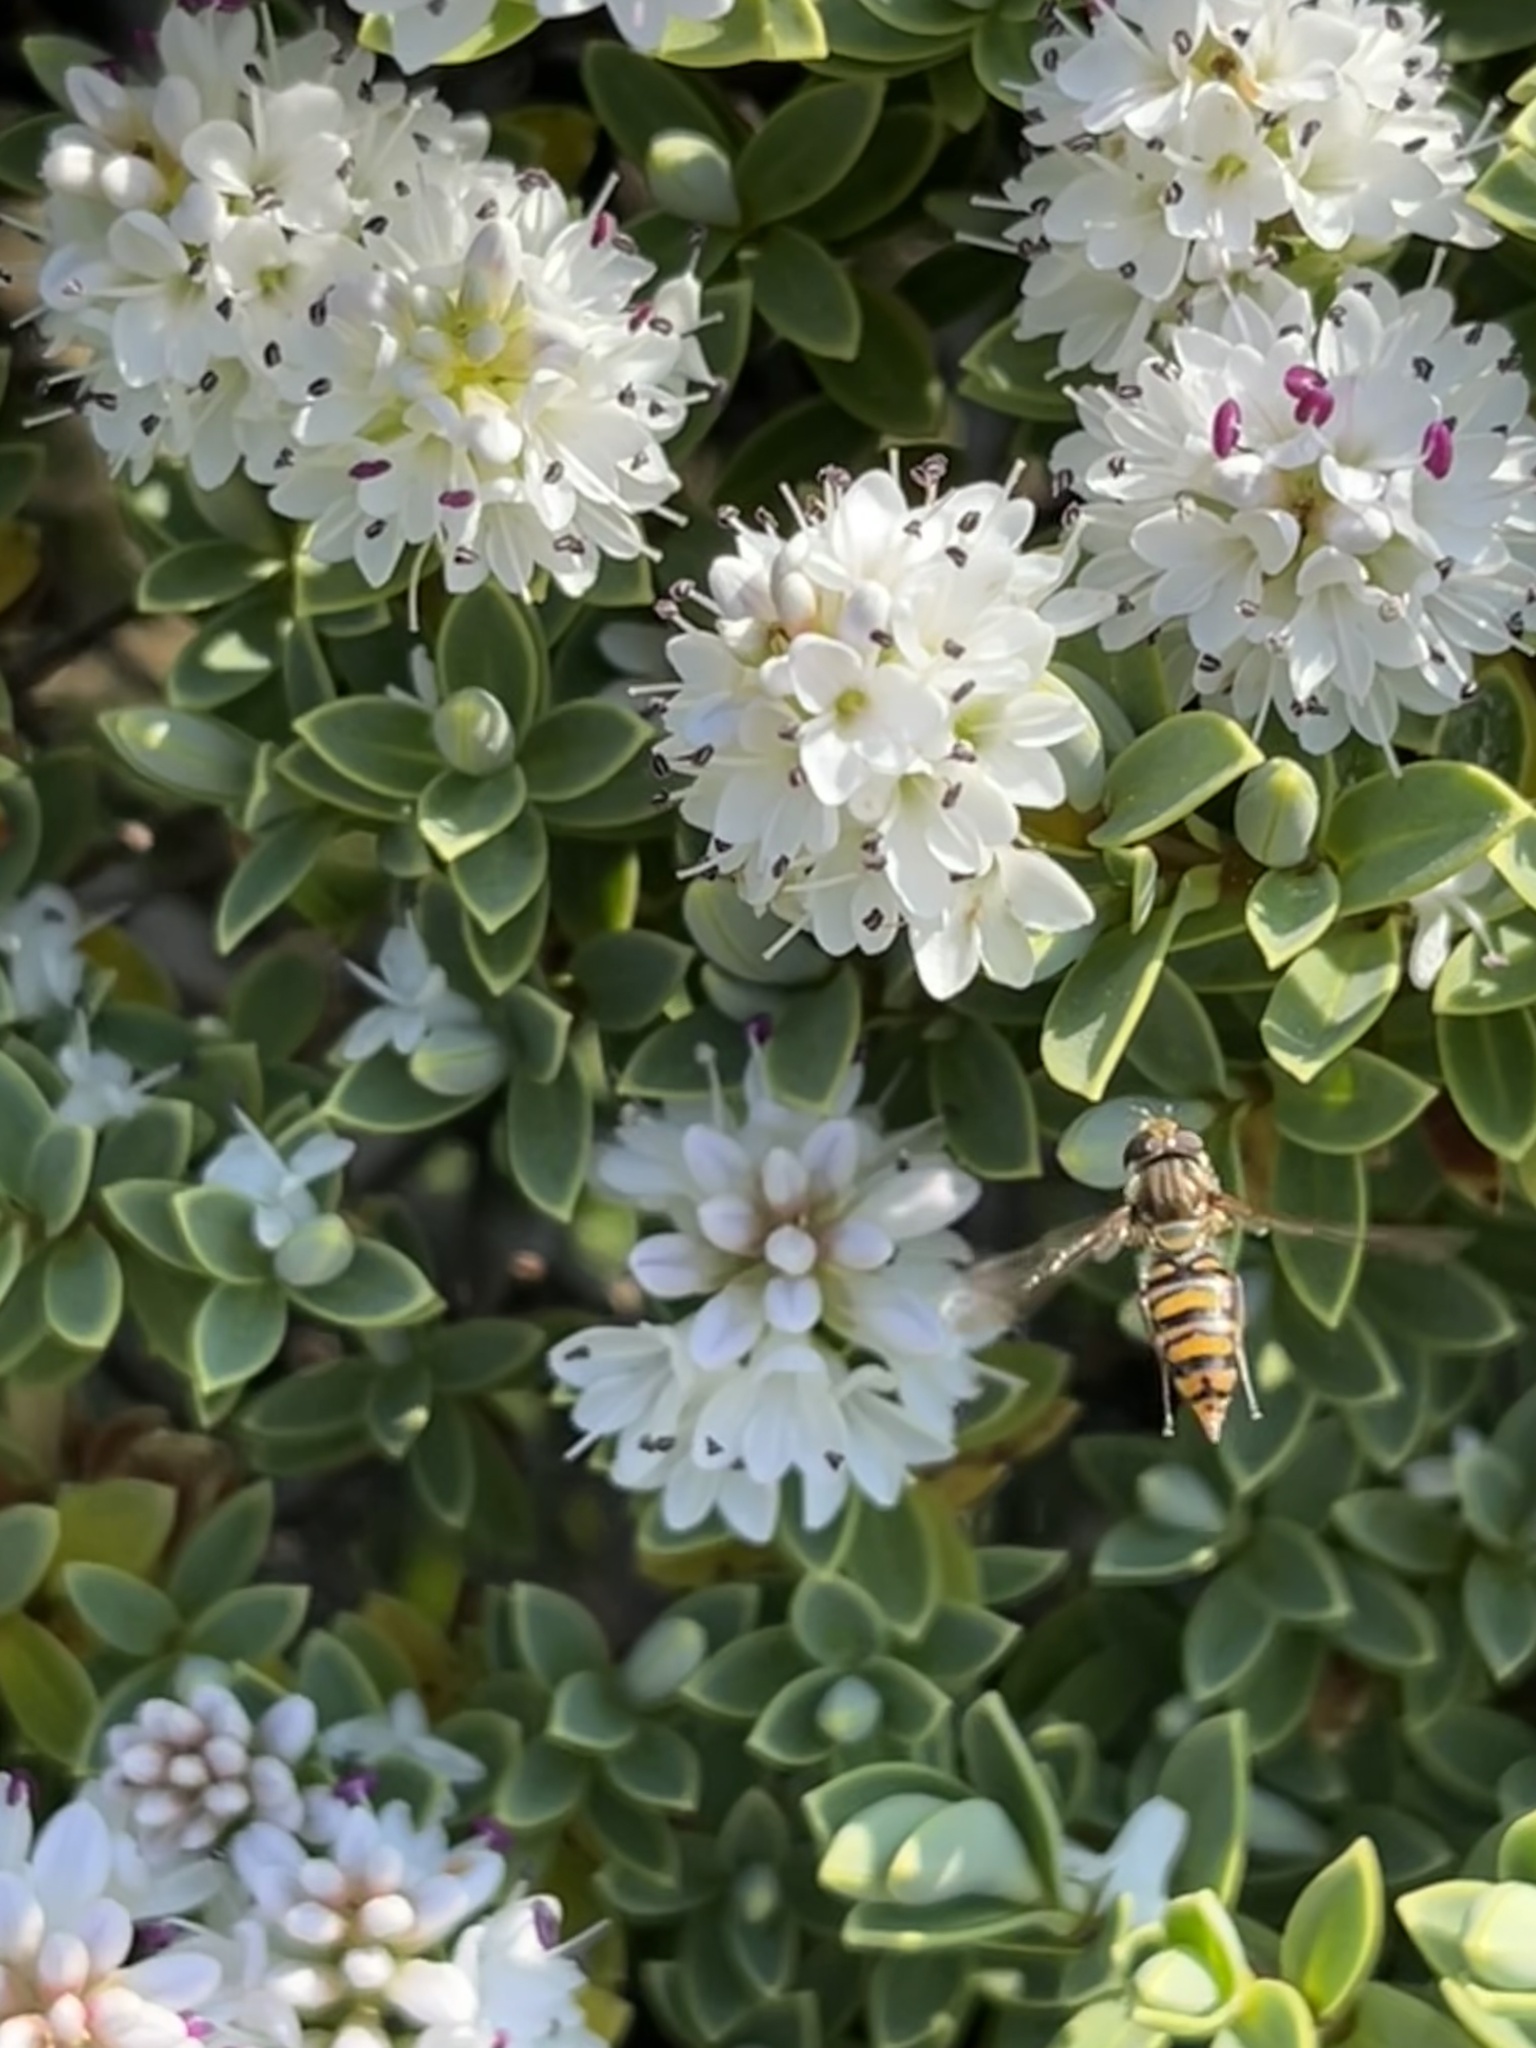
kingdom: Animalia
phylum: Arthropoda
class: Insecta
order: Diptera
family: Syrphidae
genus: Episyrphus
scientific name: Episyrphus balteatus
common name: Marmalade hoverfly
